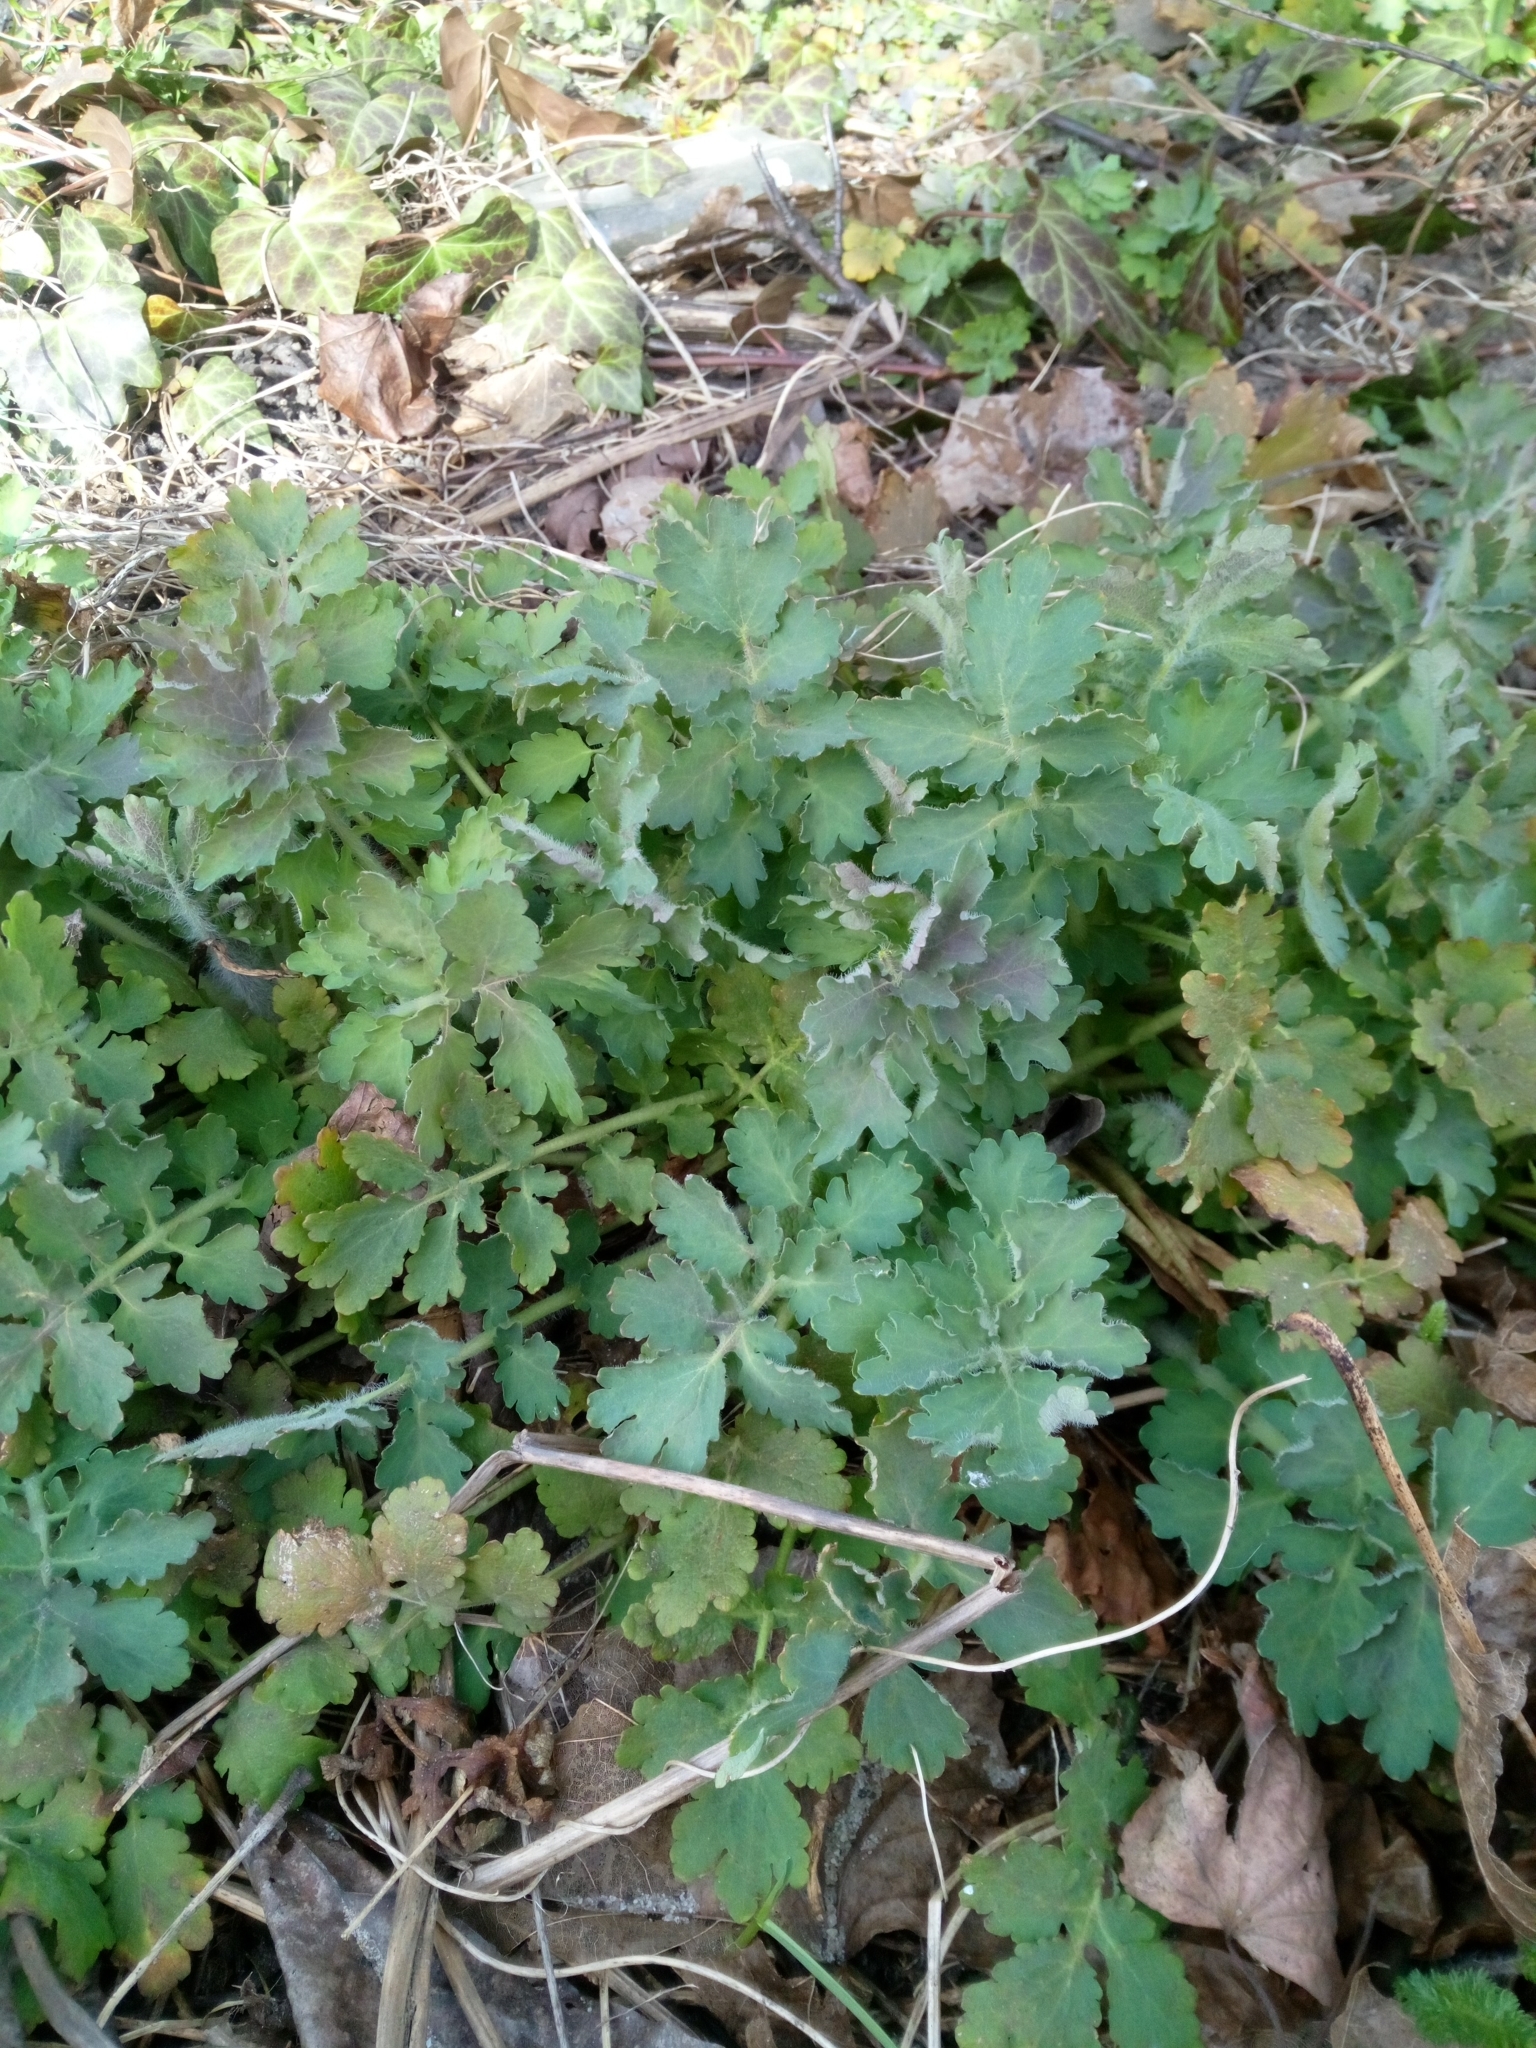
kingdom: Plantae
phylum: Tracheophyta
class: Magnoliopsida
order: Ranunculales
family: Papaveraceae
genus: Chelidonium
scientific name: Chelidonium majus
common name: Greater celandine
